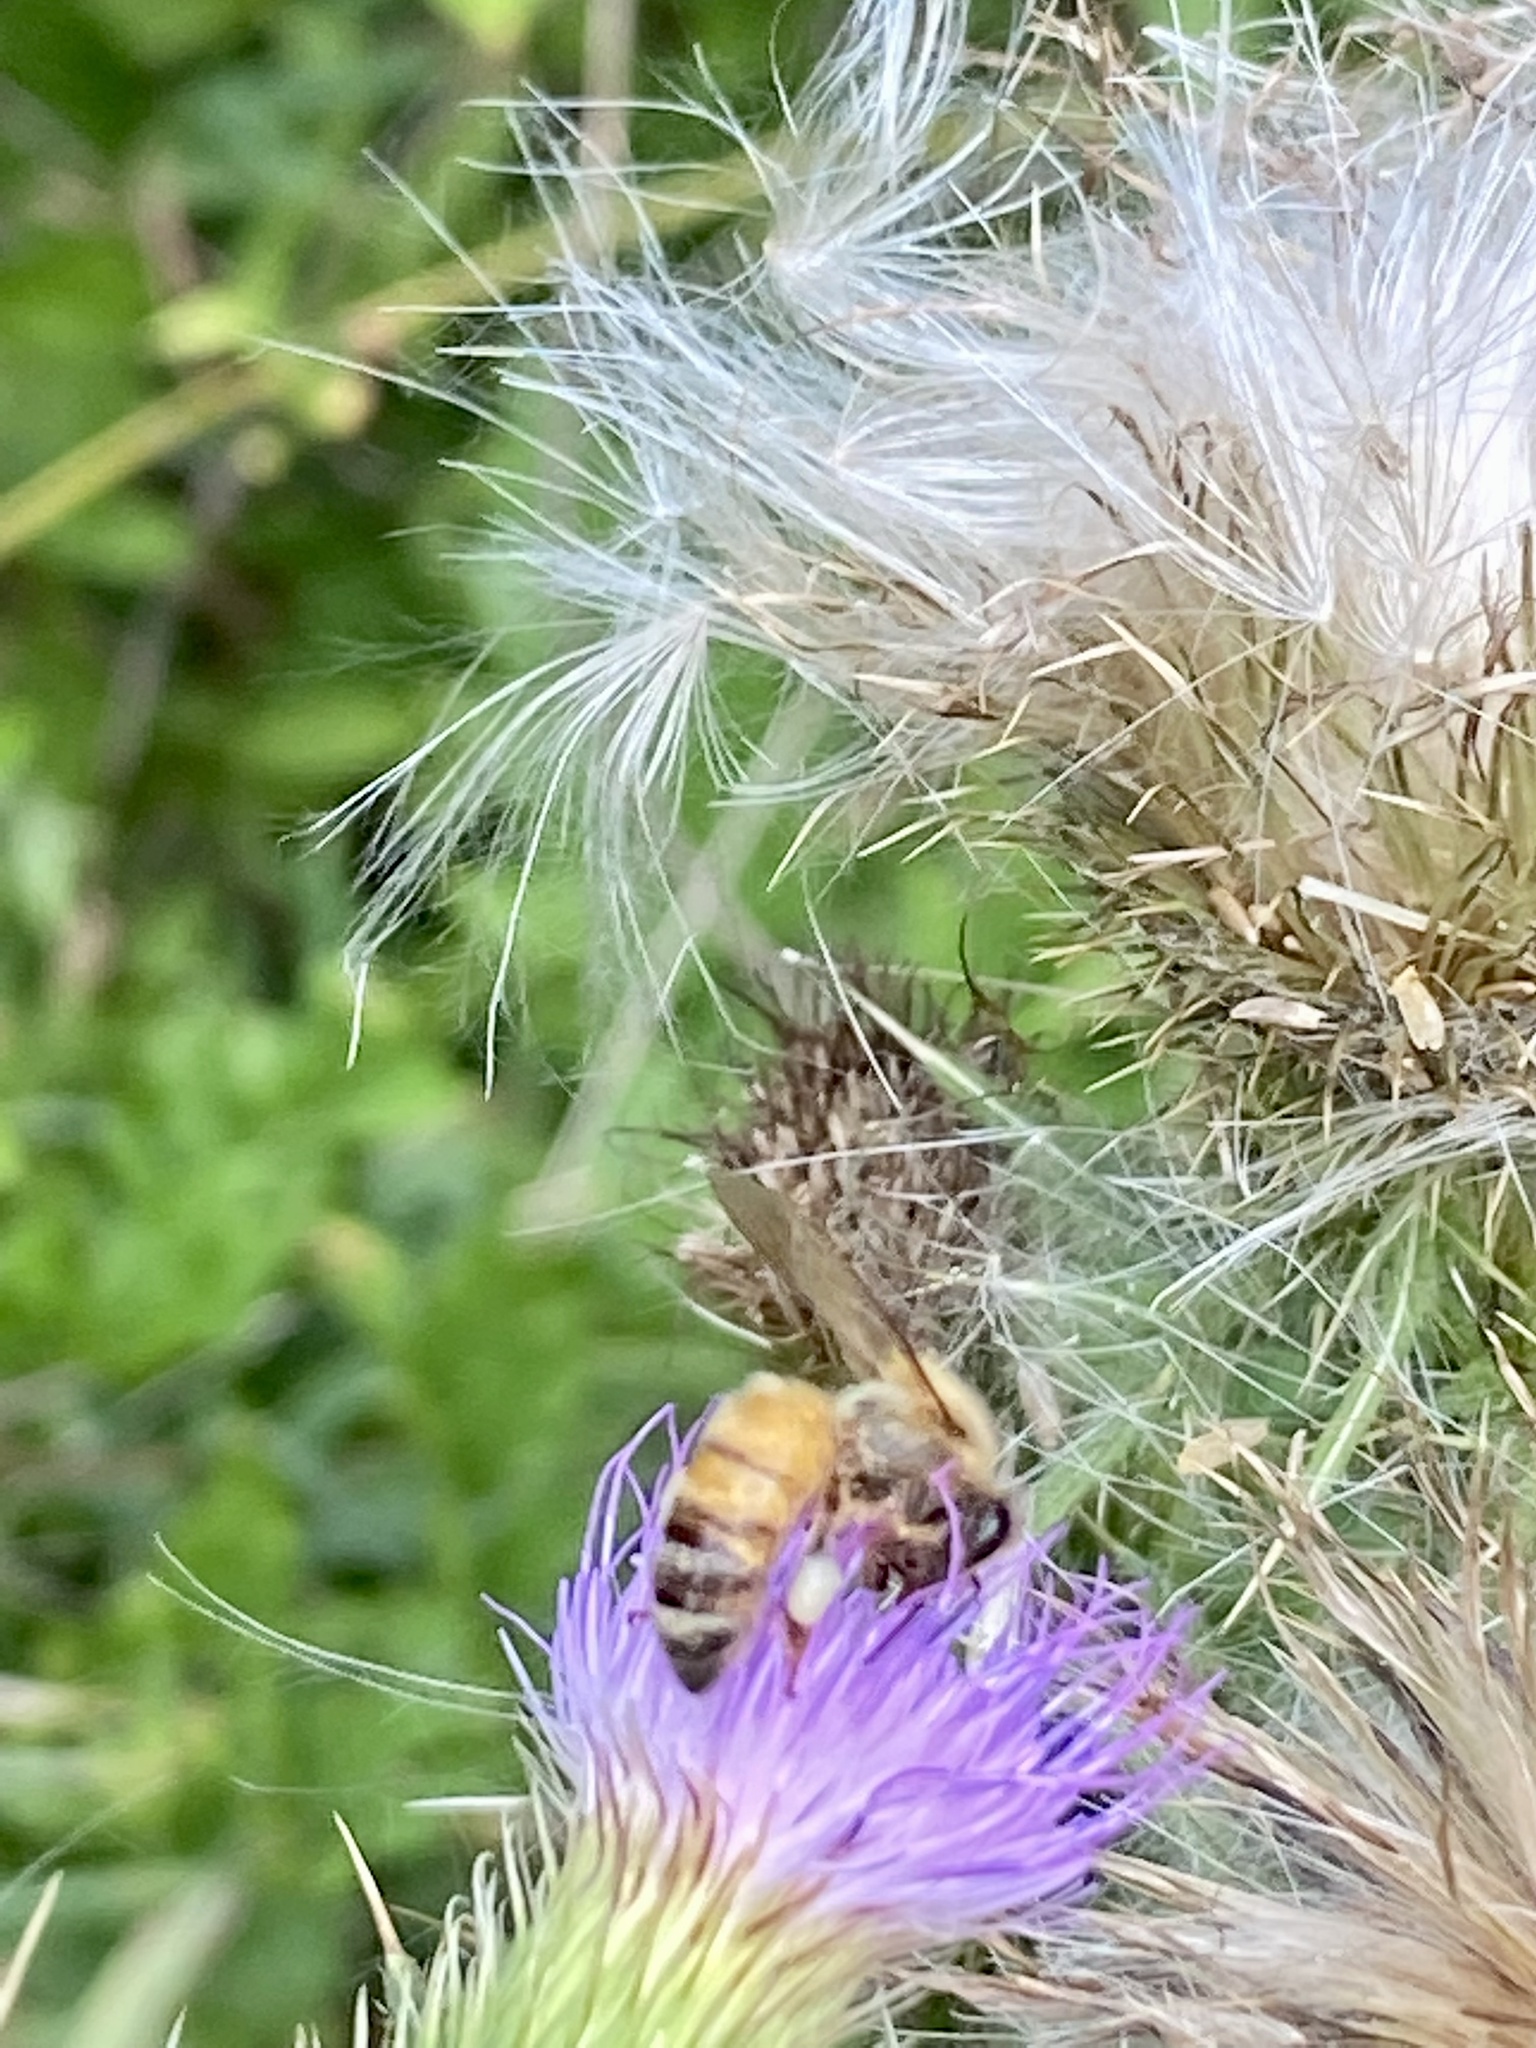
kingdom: Animalia
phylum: Arthropoda
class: Insecta
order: Hymenoptera
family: Apidae
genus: Apis
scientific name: Apis mellifera
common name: Honey bee
